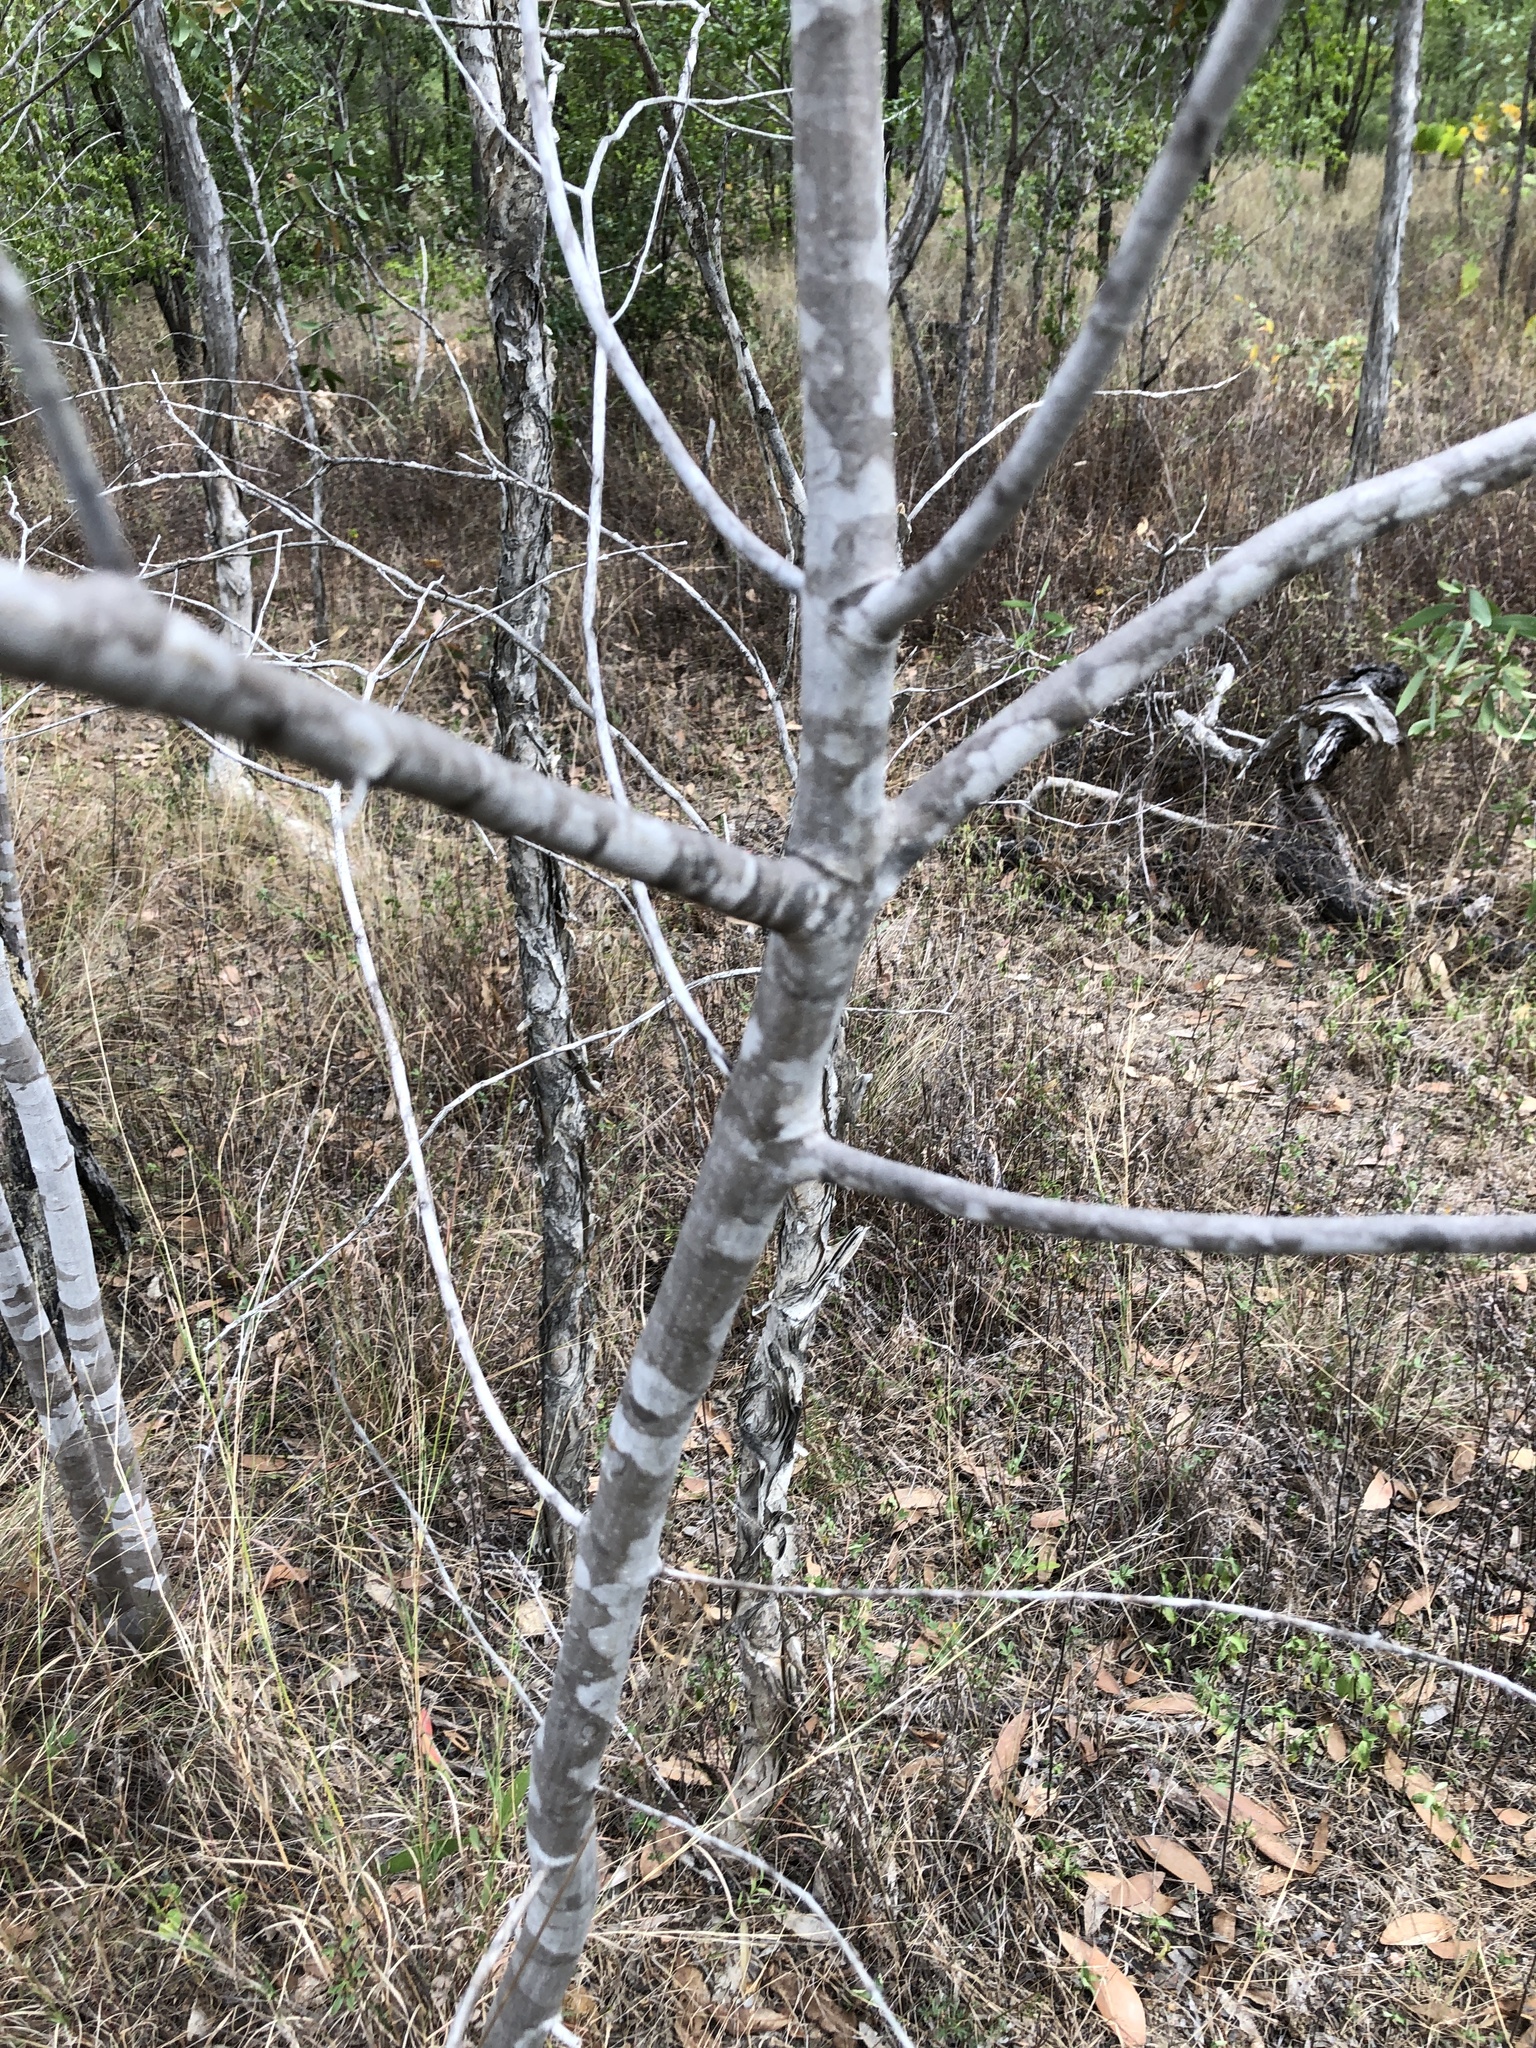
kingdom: Plantae
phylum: Tracheophyta
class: Magnoliopsida
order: Gentianales
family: Rubiaceae
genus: Psydrax
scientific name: Psydrax salignus
